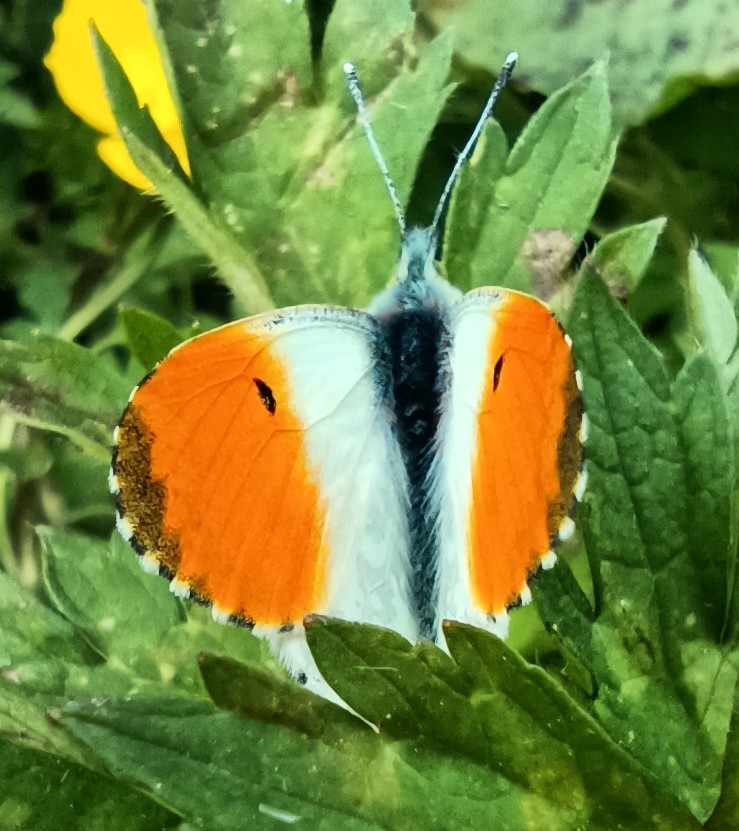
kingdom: Animalia
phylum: Arthropoda
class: Insecta
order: Lepidoptera
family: Pieridae
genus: Anthocharis
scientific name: Anthocharis cardamines
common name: Orange-tip
